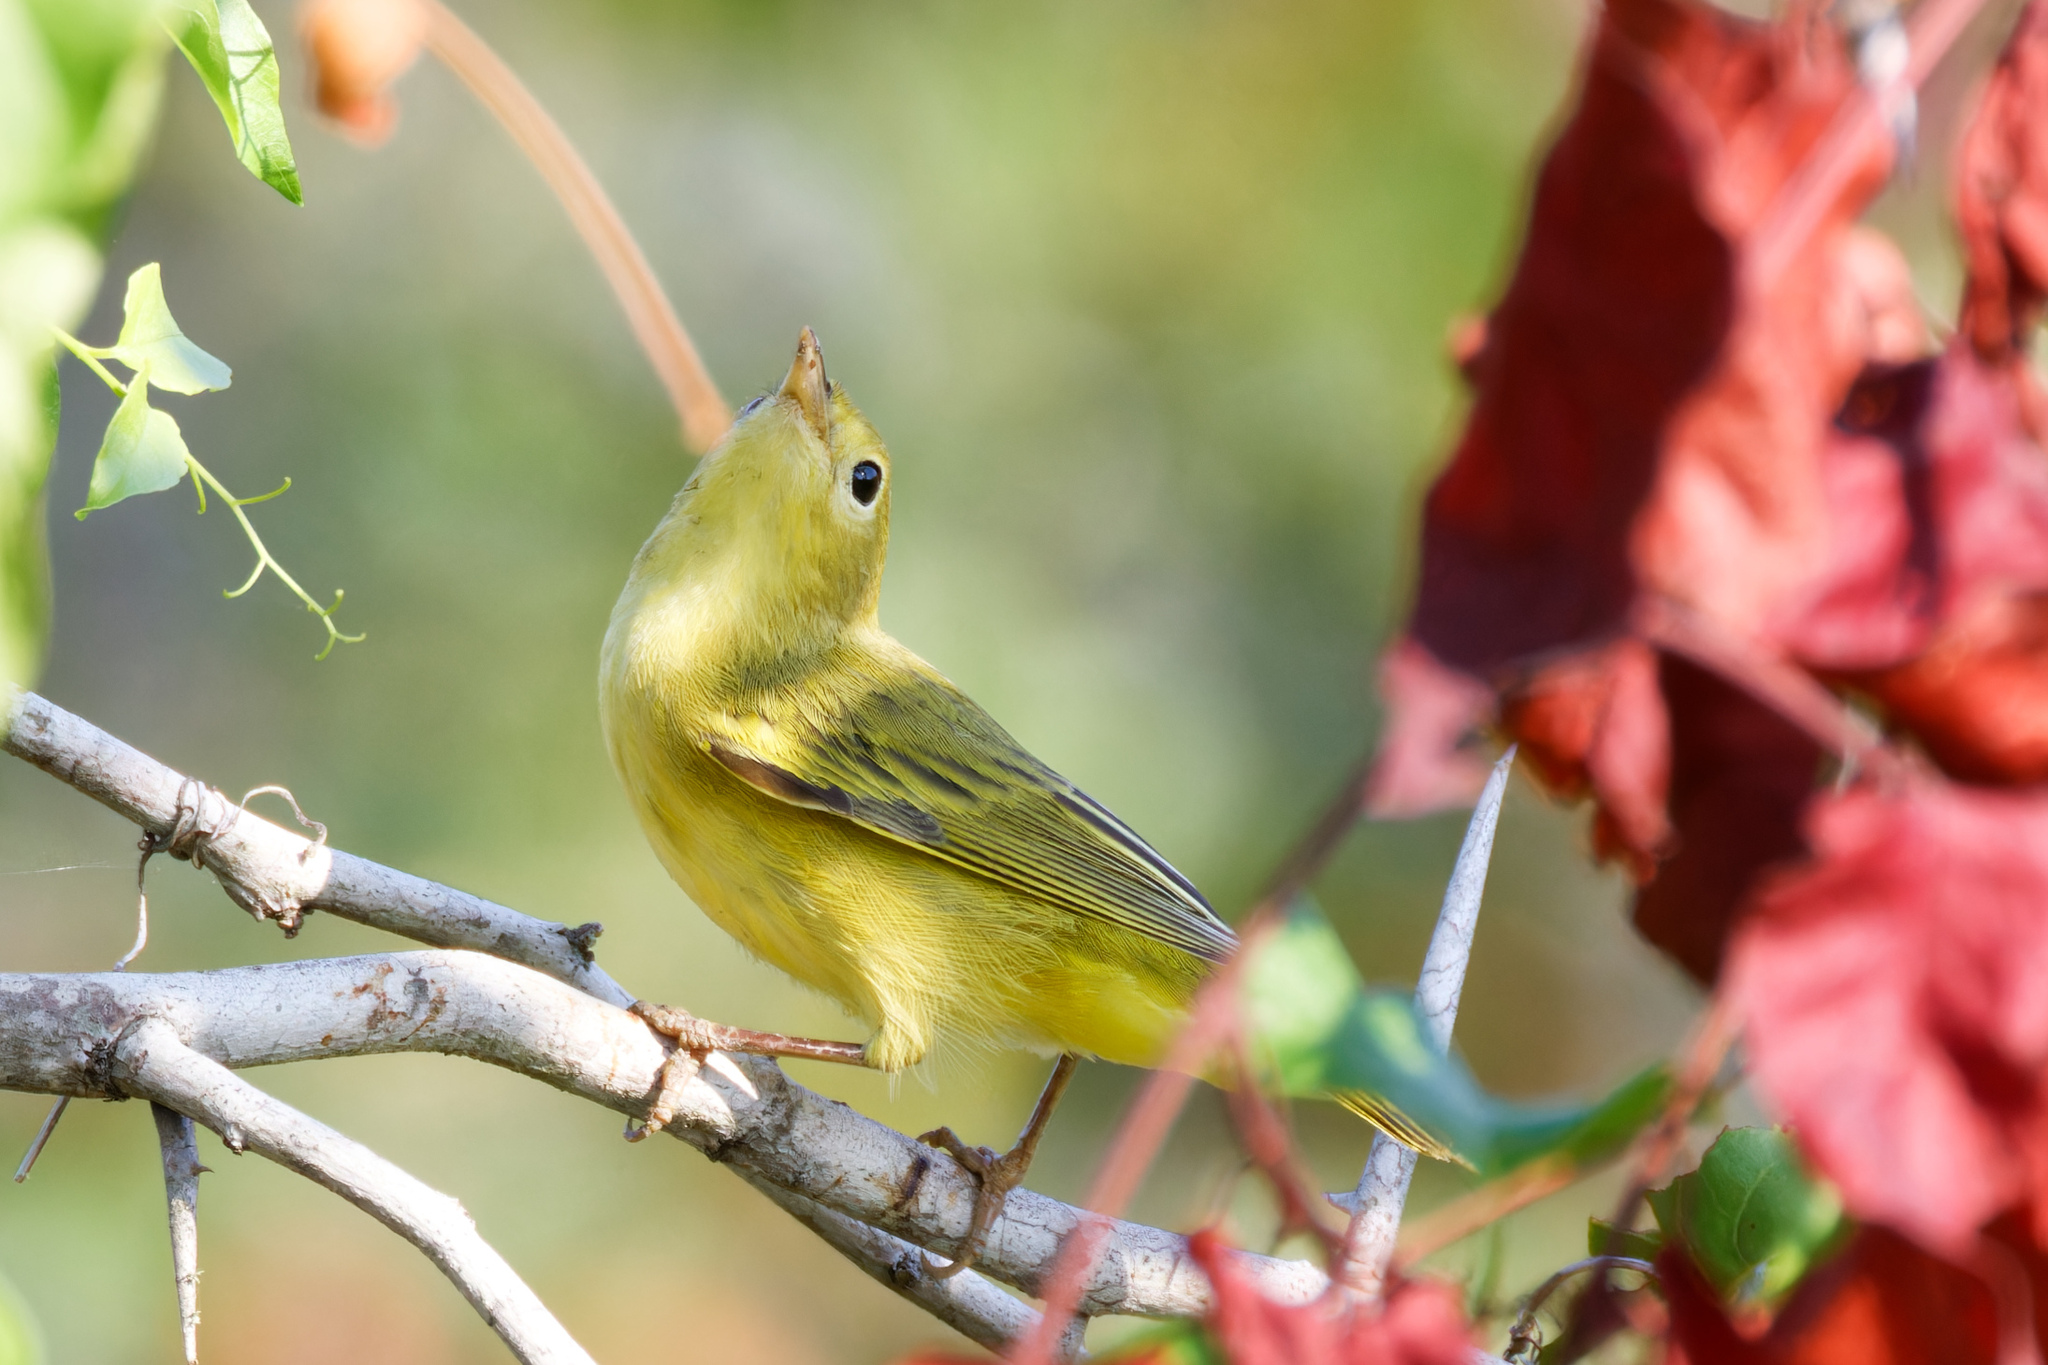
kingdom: Animalia
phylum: Chordata
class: Aves
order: Passeriformes
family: Parulidae
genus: Setophaga
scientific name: Setophaga petechia
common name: Yellow warbler
